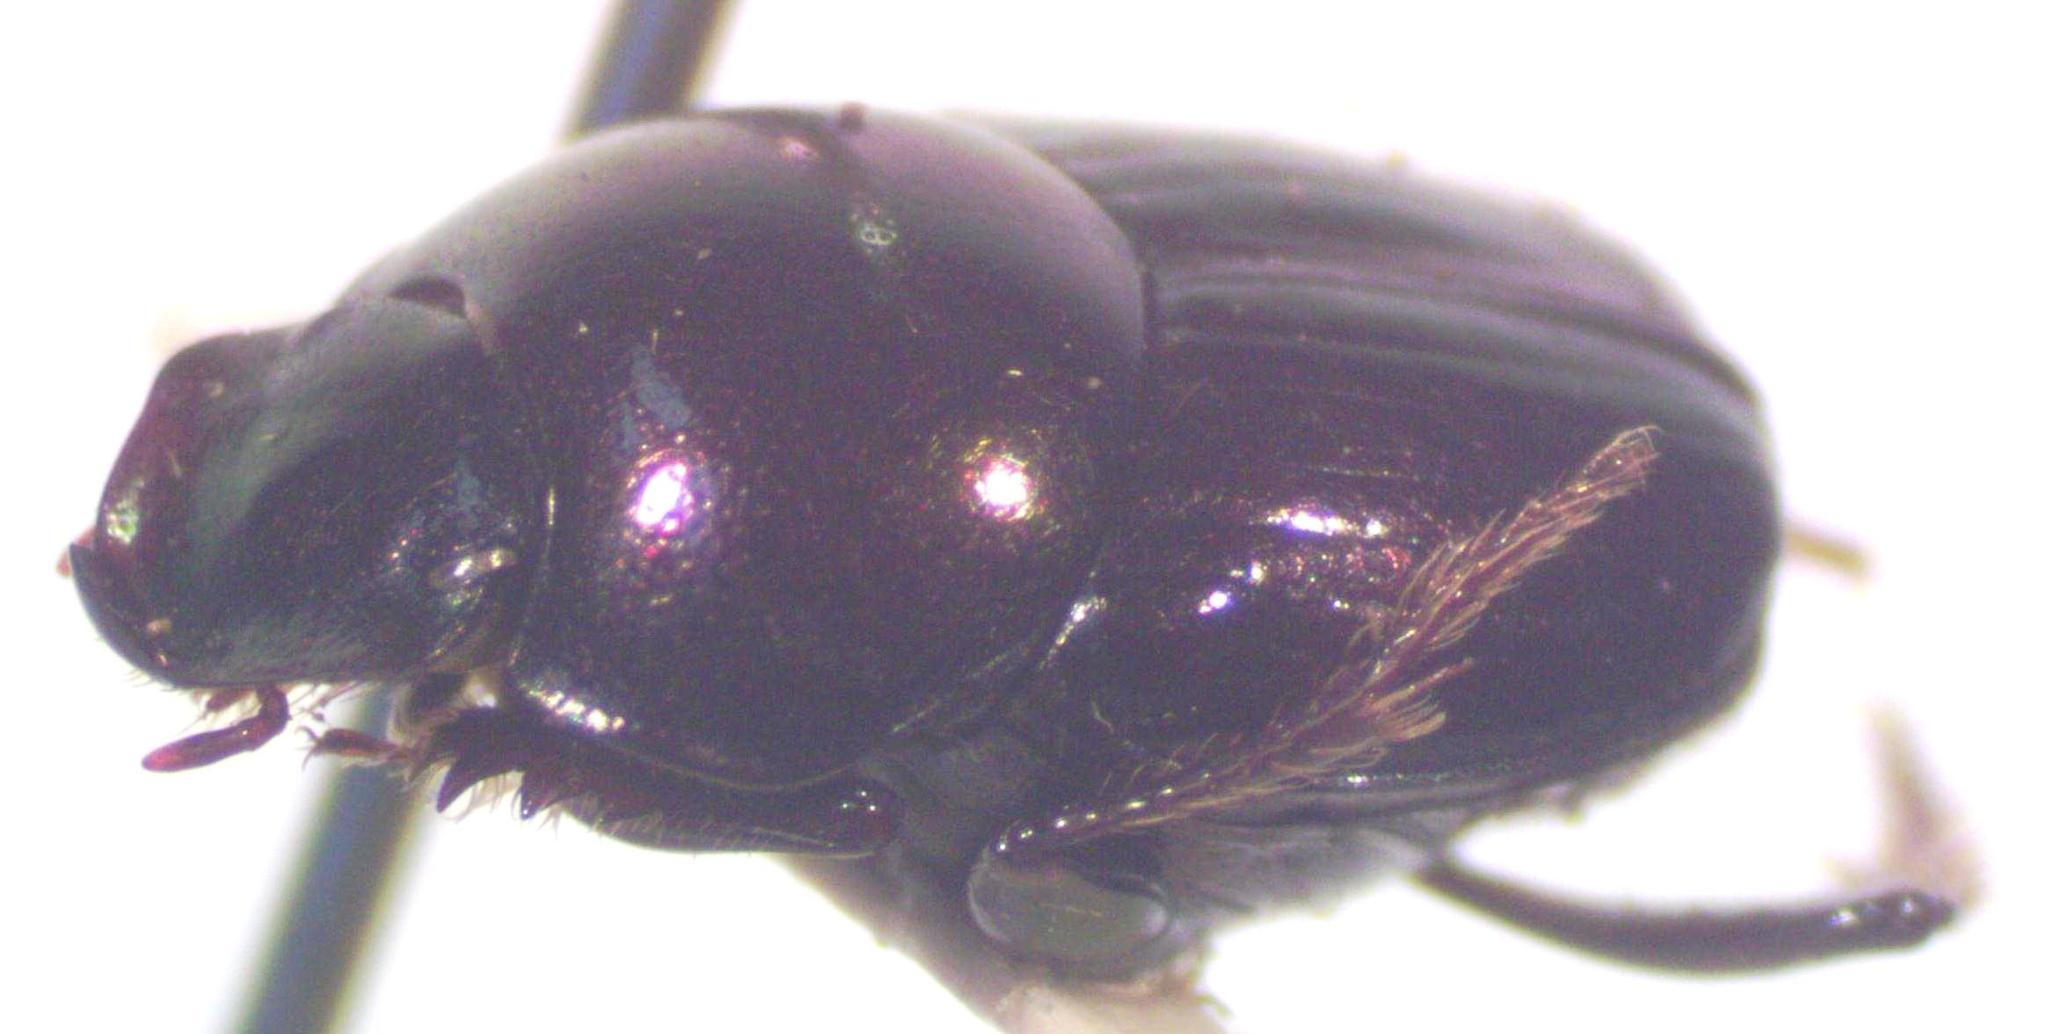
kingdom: Animalia
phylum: Arthropoda
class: Insecta
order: Coleoptera
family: Scarabaeidae
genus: Onthophagus
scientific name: Onthophagus tapirus
